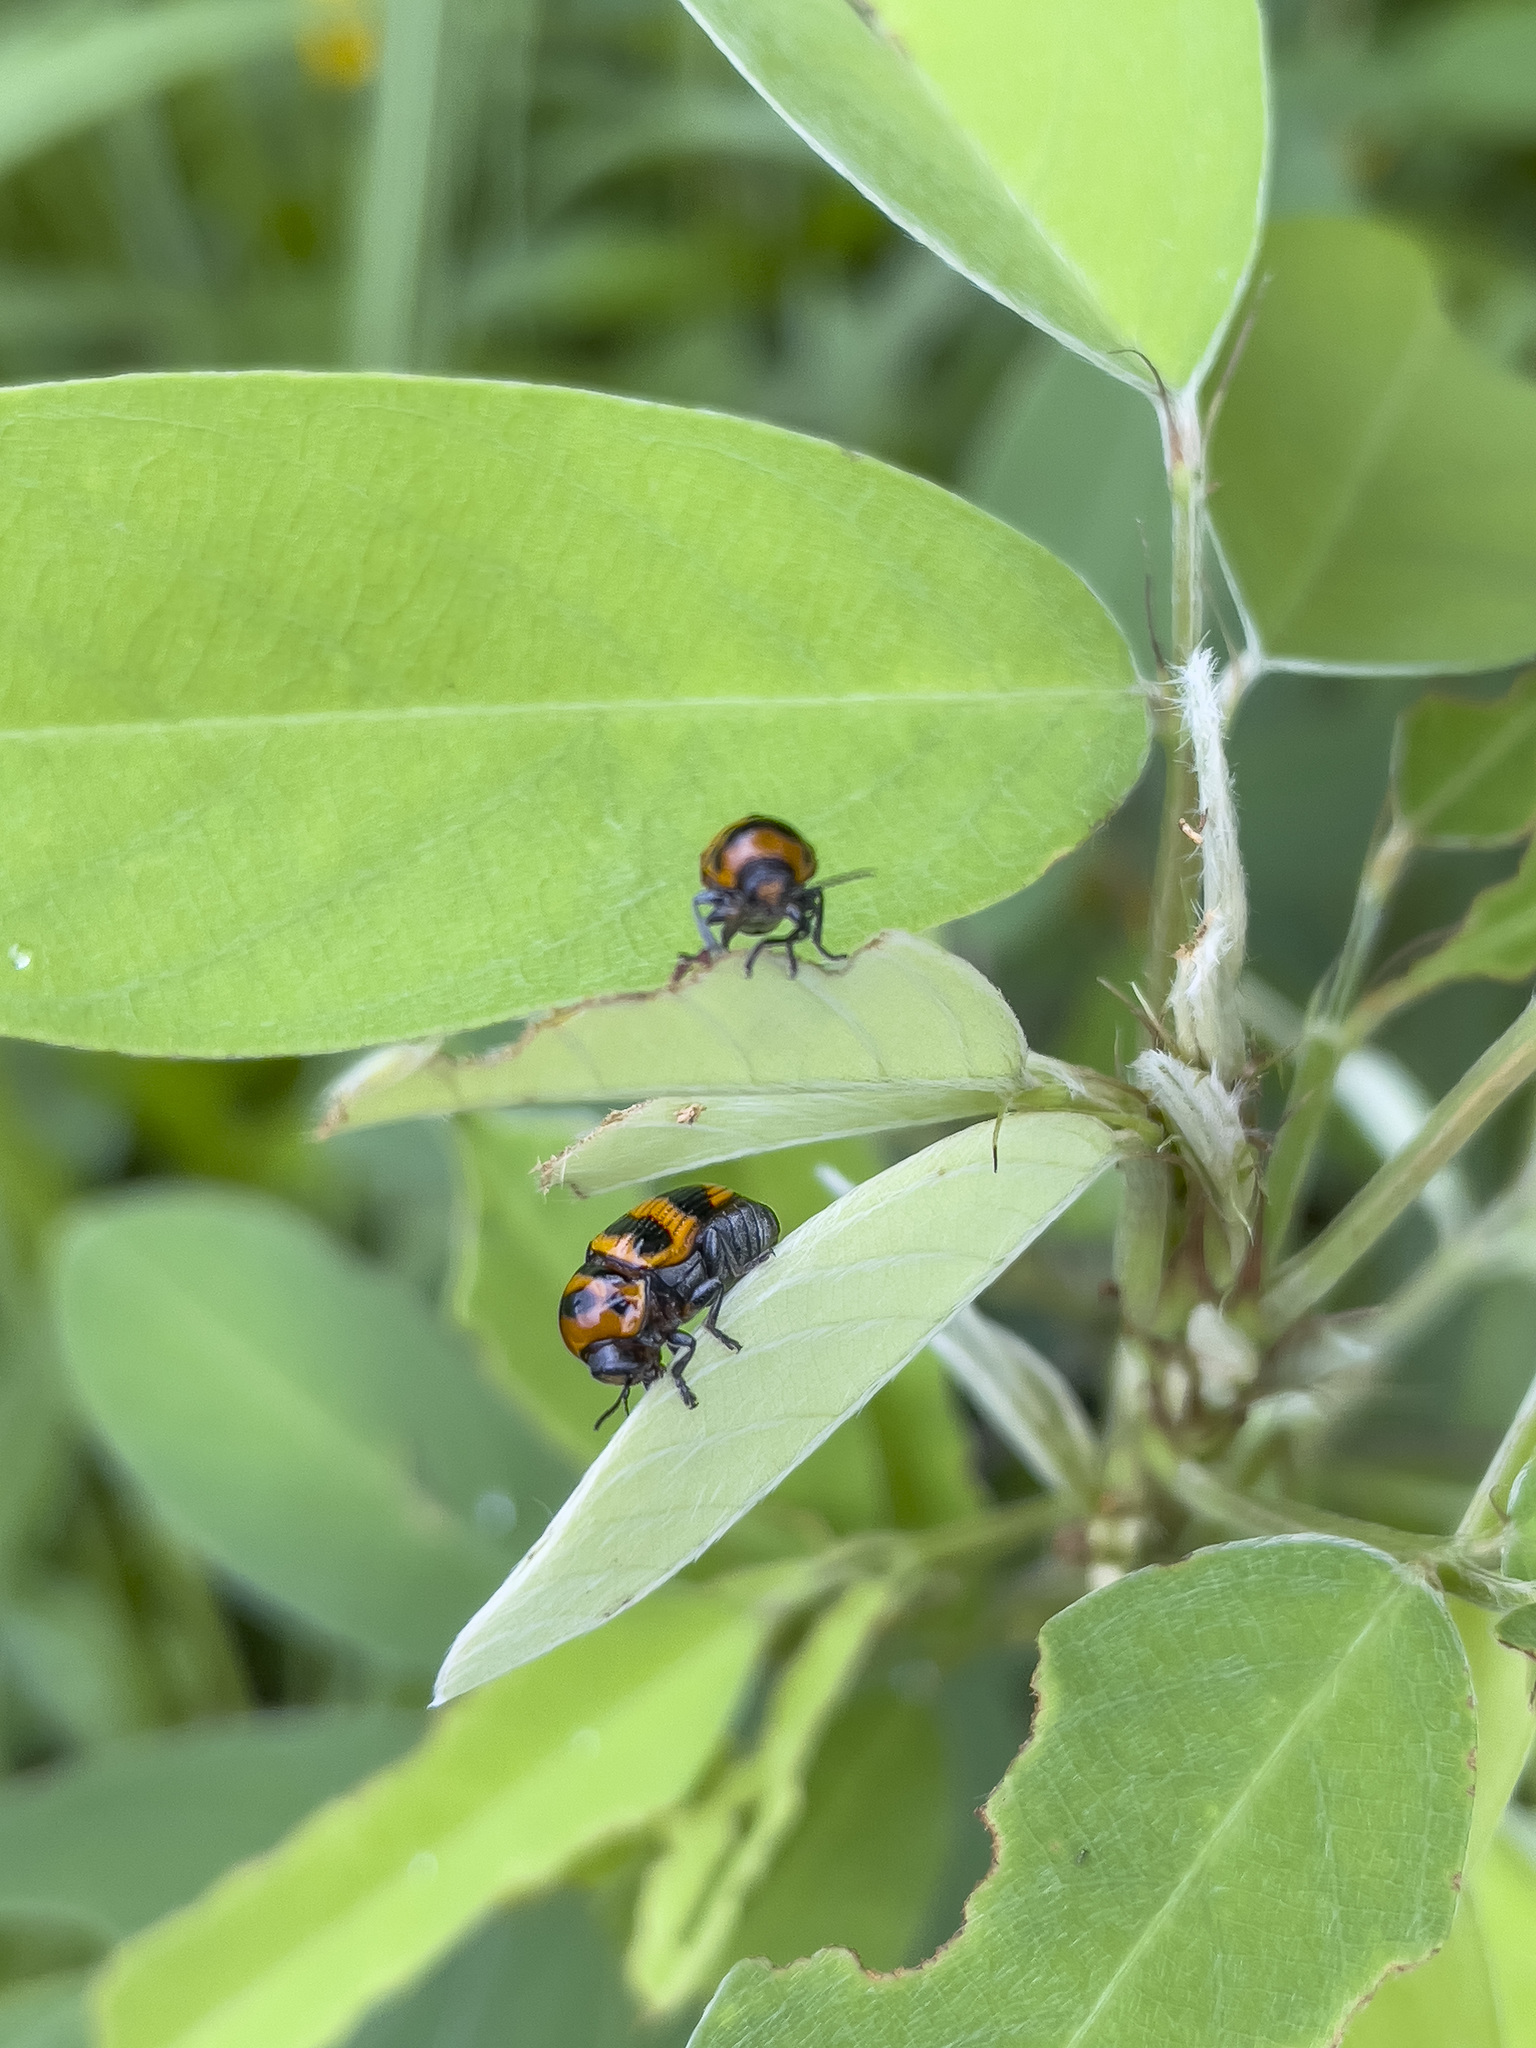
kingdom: Animalia
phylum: Arthropoda
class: Insecta
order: Coleoptera
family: Chrysomelidae
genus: Cryptocephalus
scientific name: Cryptocephalus trifasciatus
